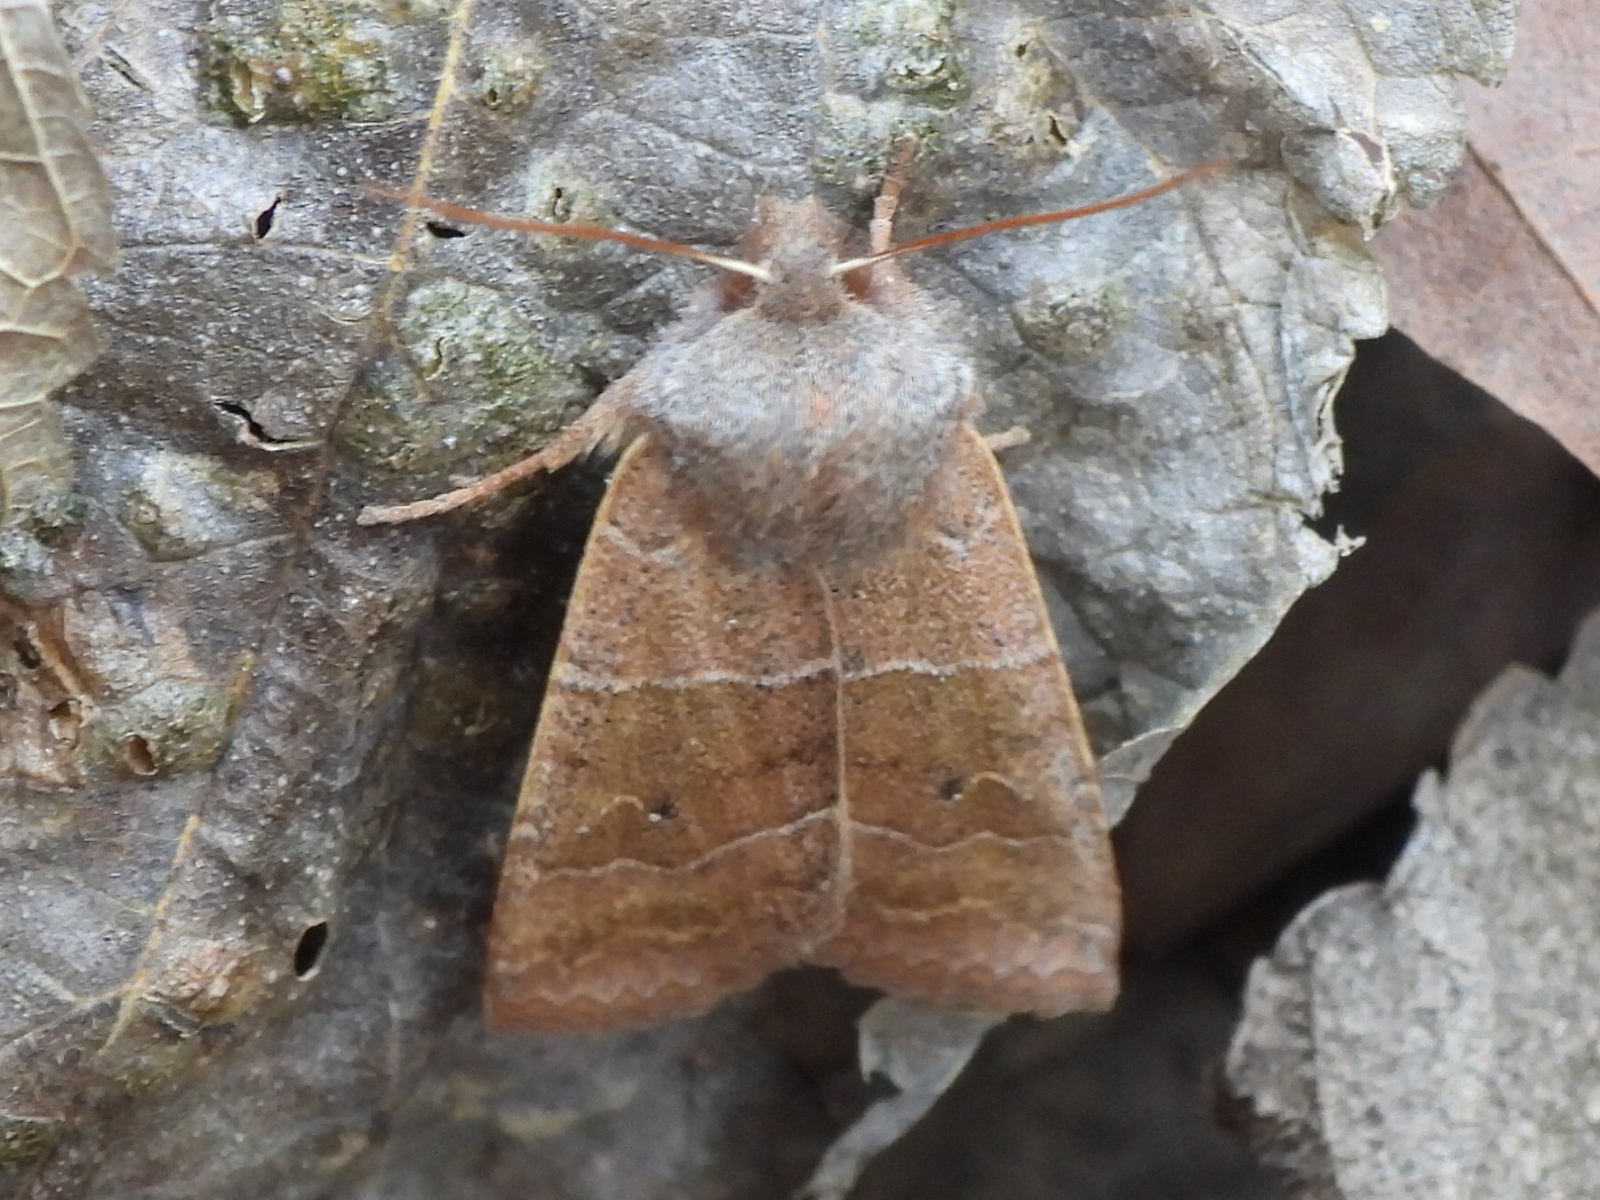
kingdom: Animalia
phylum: Arthropoda
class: Insecta
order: Lepidoptera
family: Noctuidae
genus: Eupsilia
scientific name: Eupsilia morrisoni
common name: Morrison's sallow
